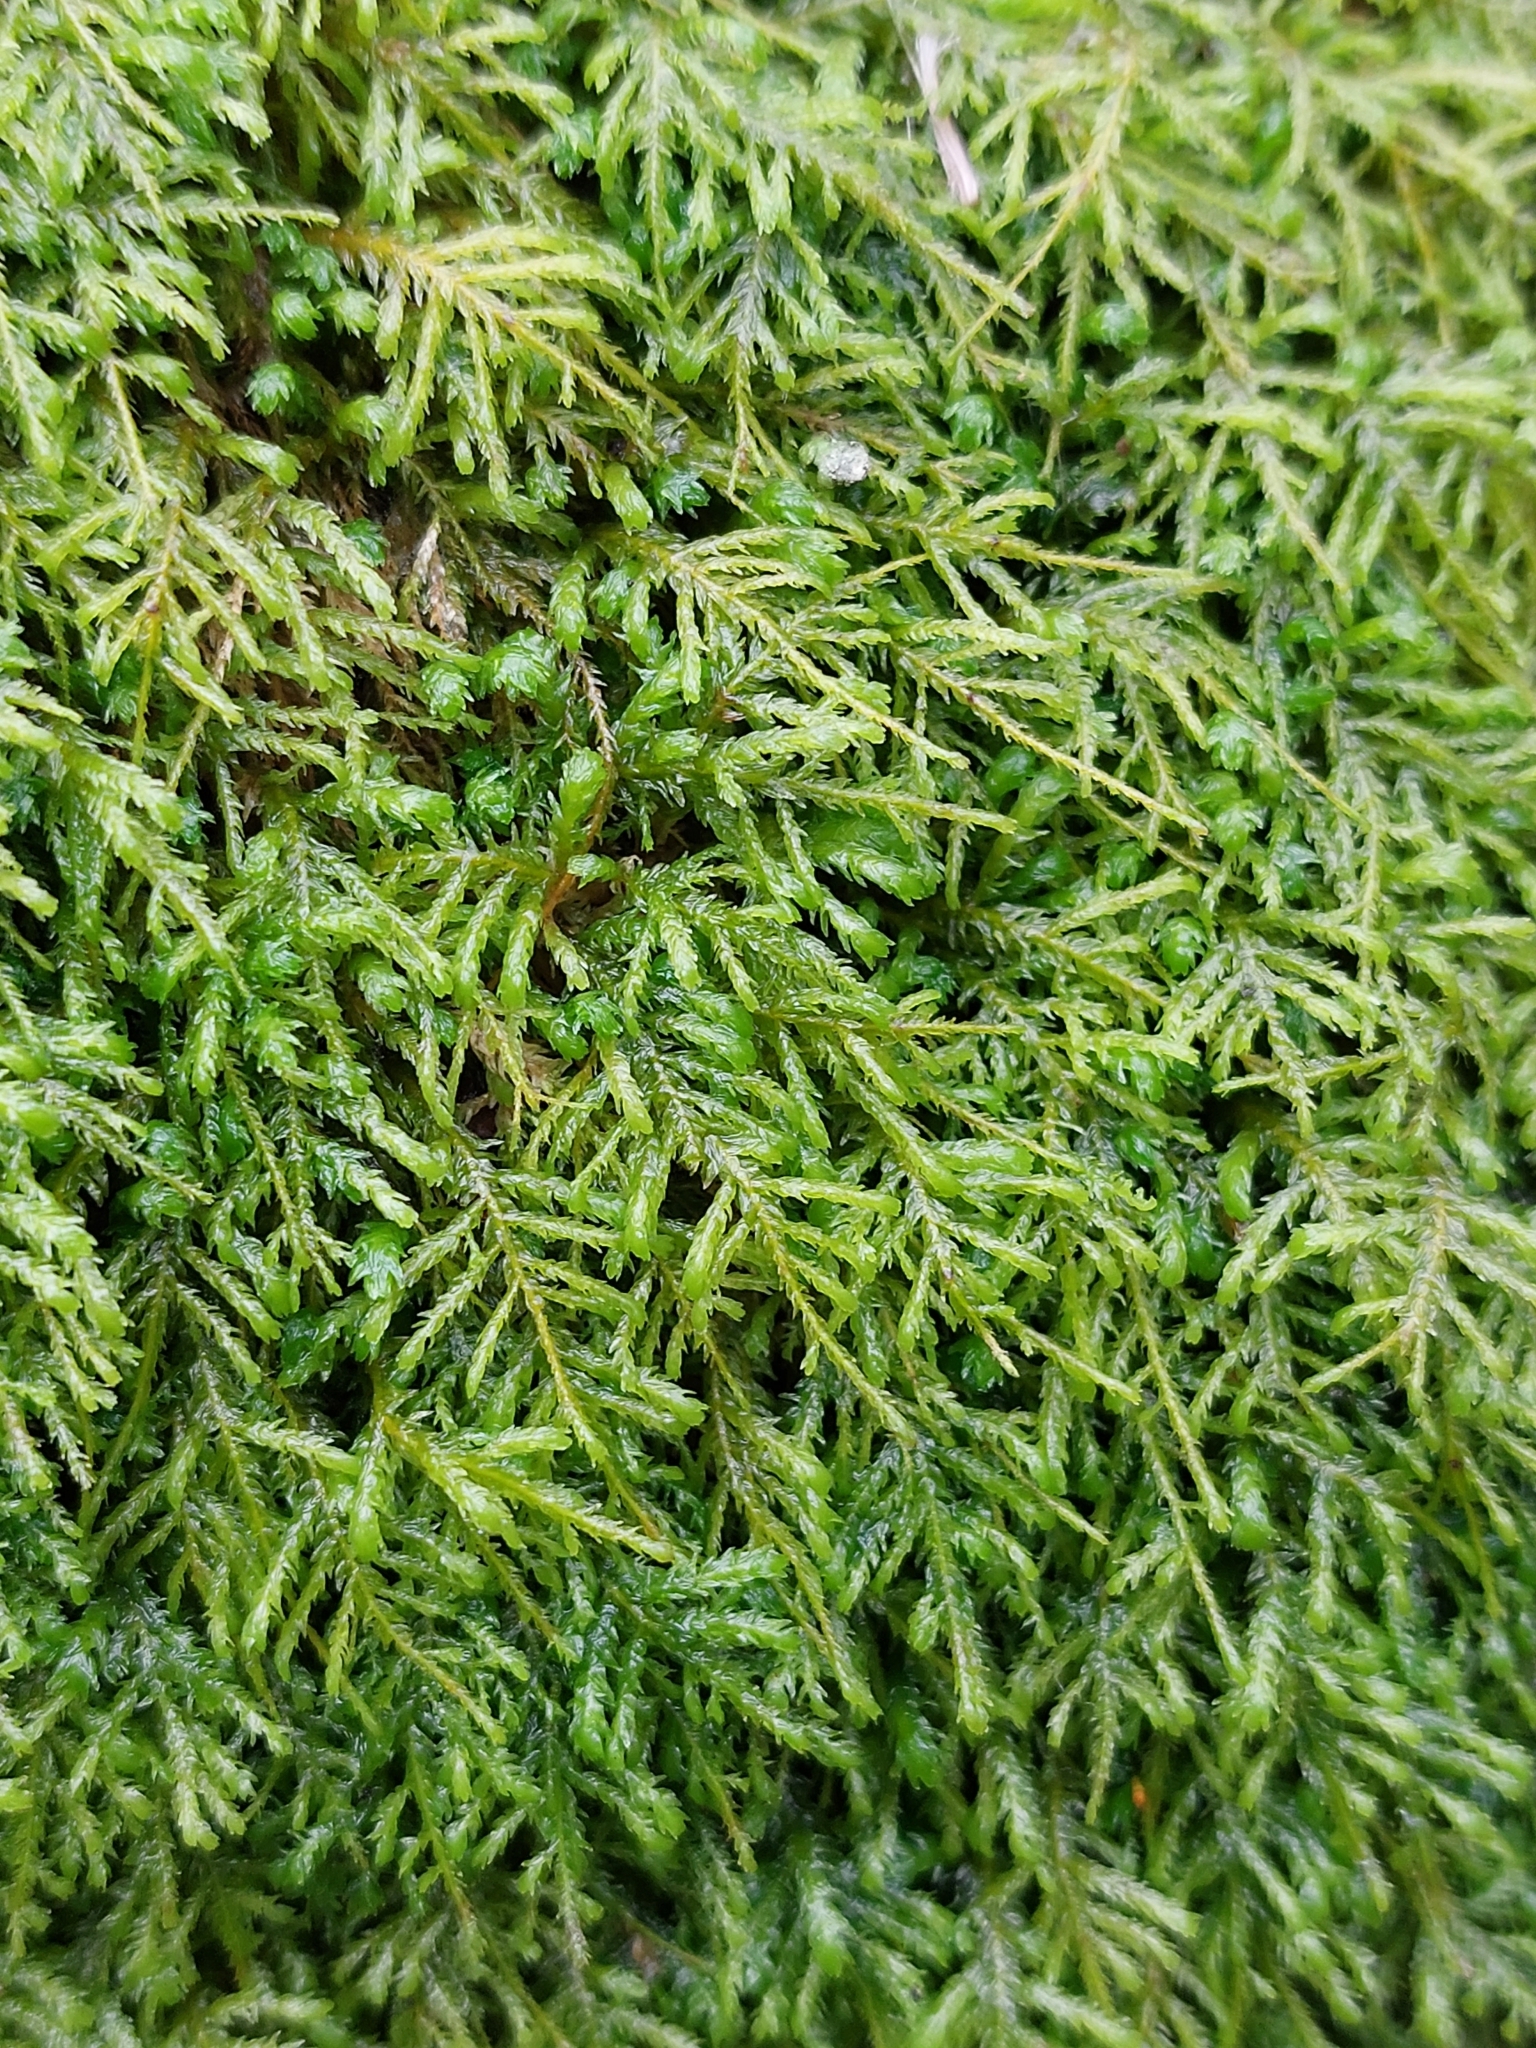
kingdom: Plantae
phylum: Bryophyta
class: Bryopsida
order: Hypnales
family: Neckeraceae
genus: Pseudanomodon
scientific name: Pseudanomodon attenuatus
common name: Tree-skirt moss
